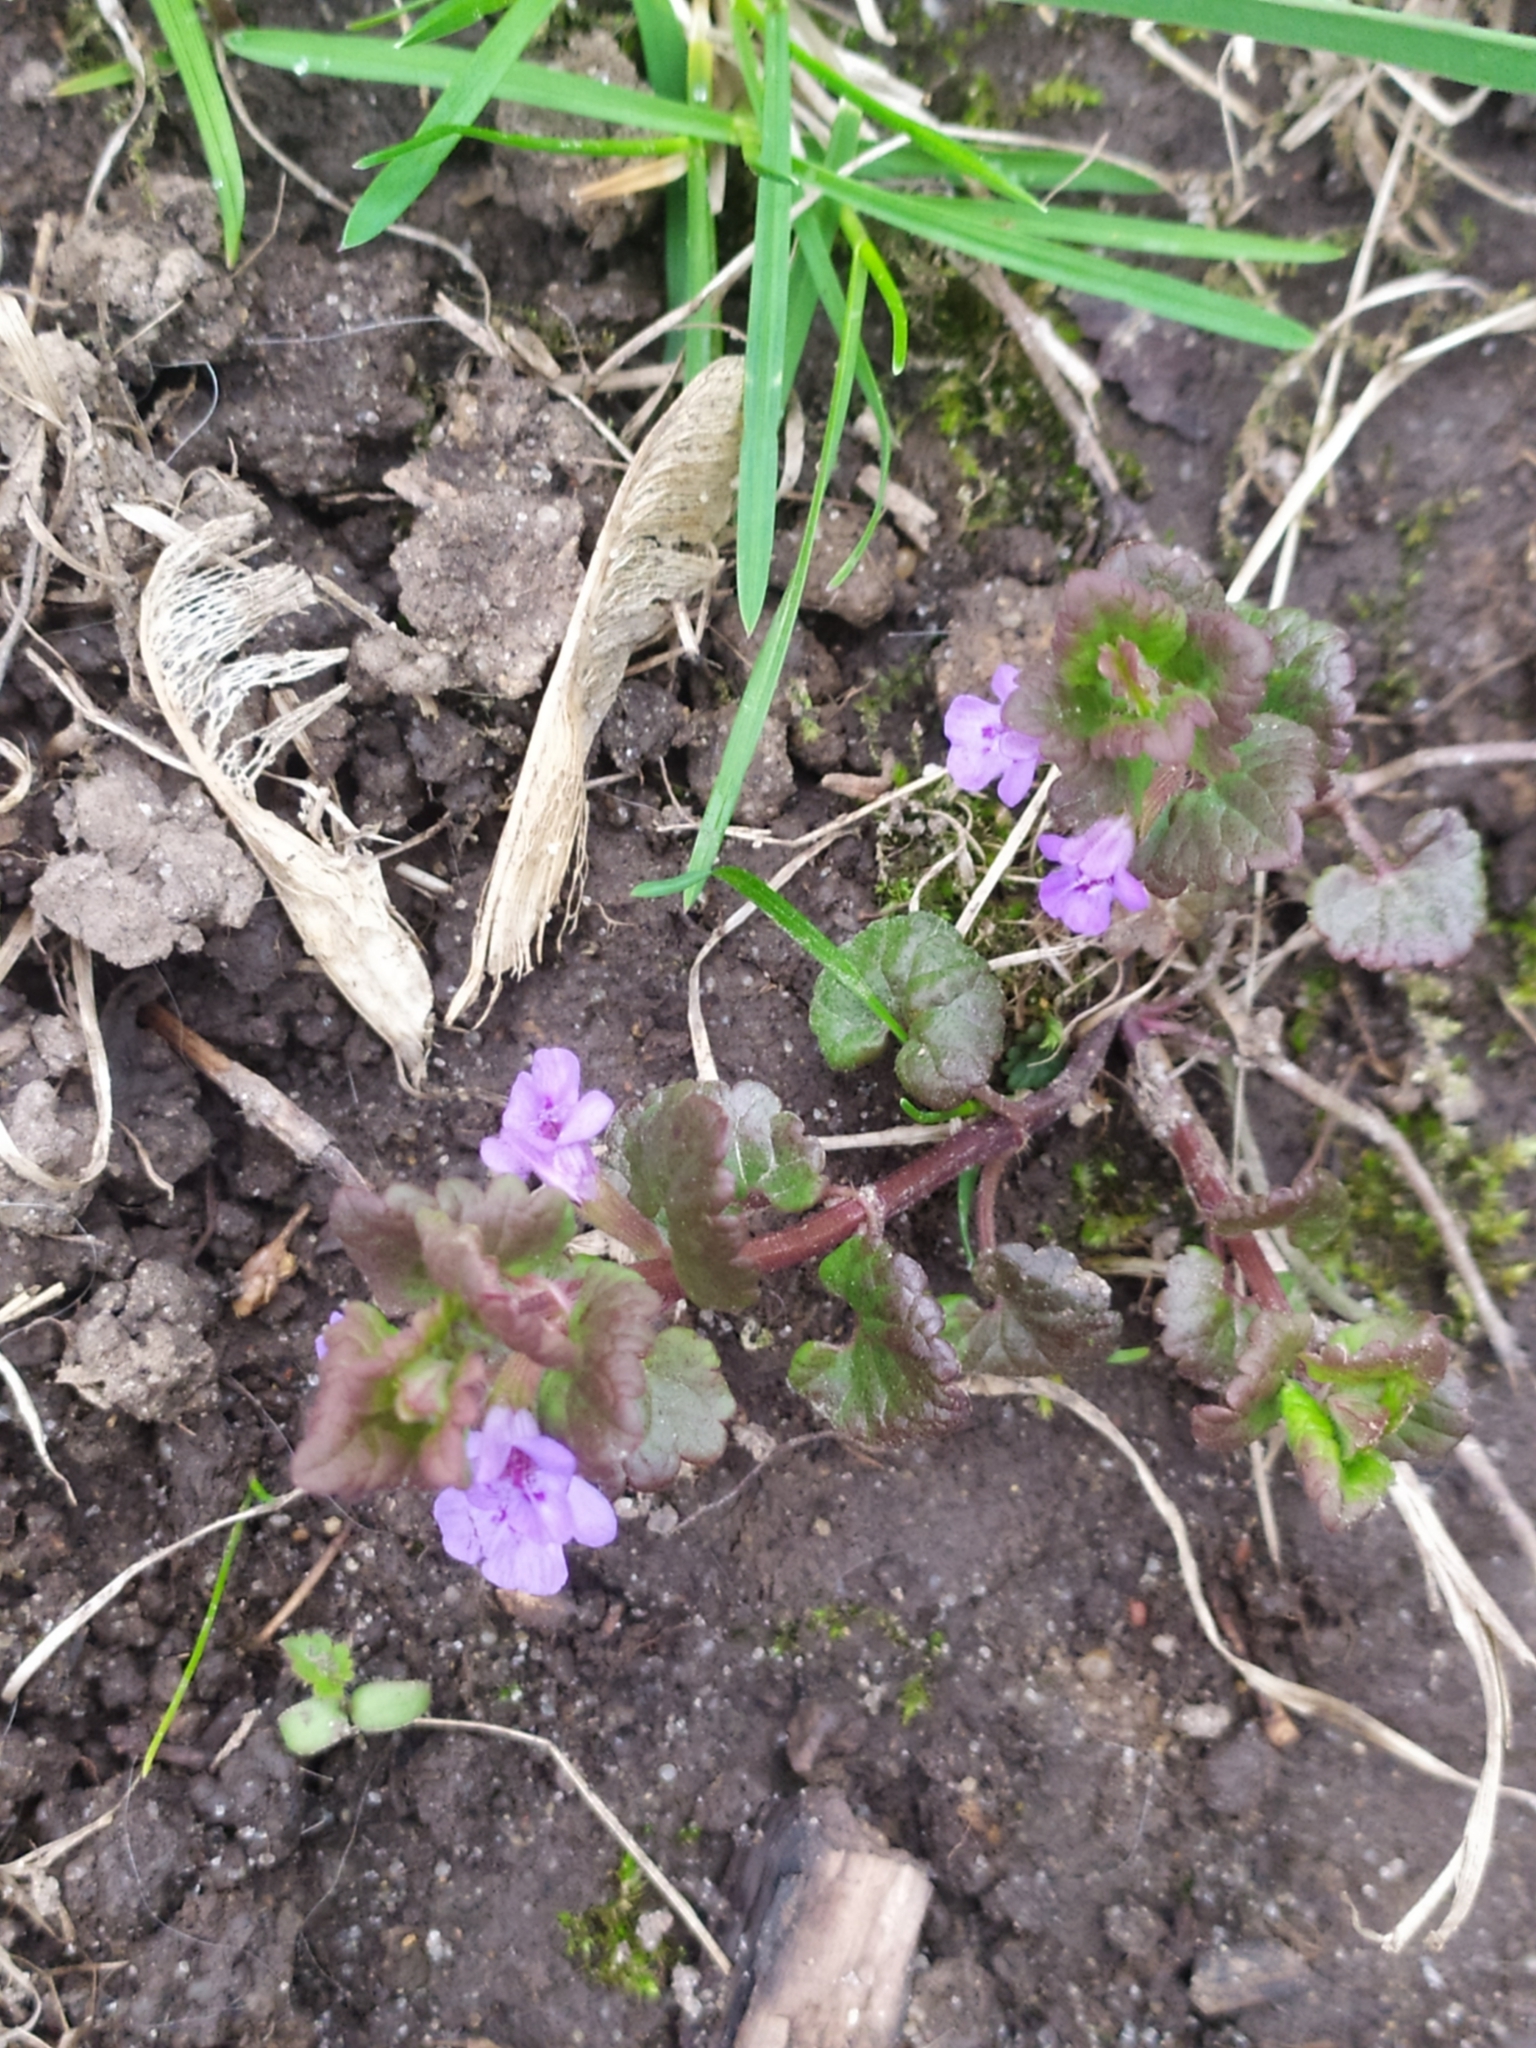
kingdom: Plantae
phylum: Tracheophyta
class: Magnoliopsida
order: Lamiales
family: Lamiaceae
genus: Glechoma
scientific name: Glechoma hederacea
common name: Ground ivy
